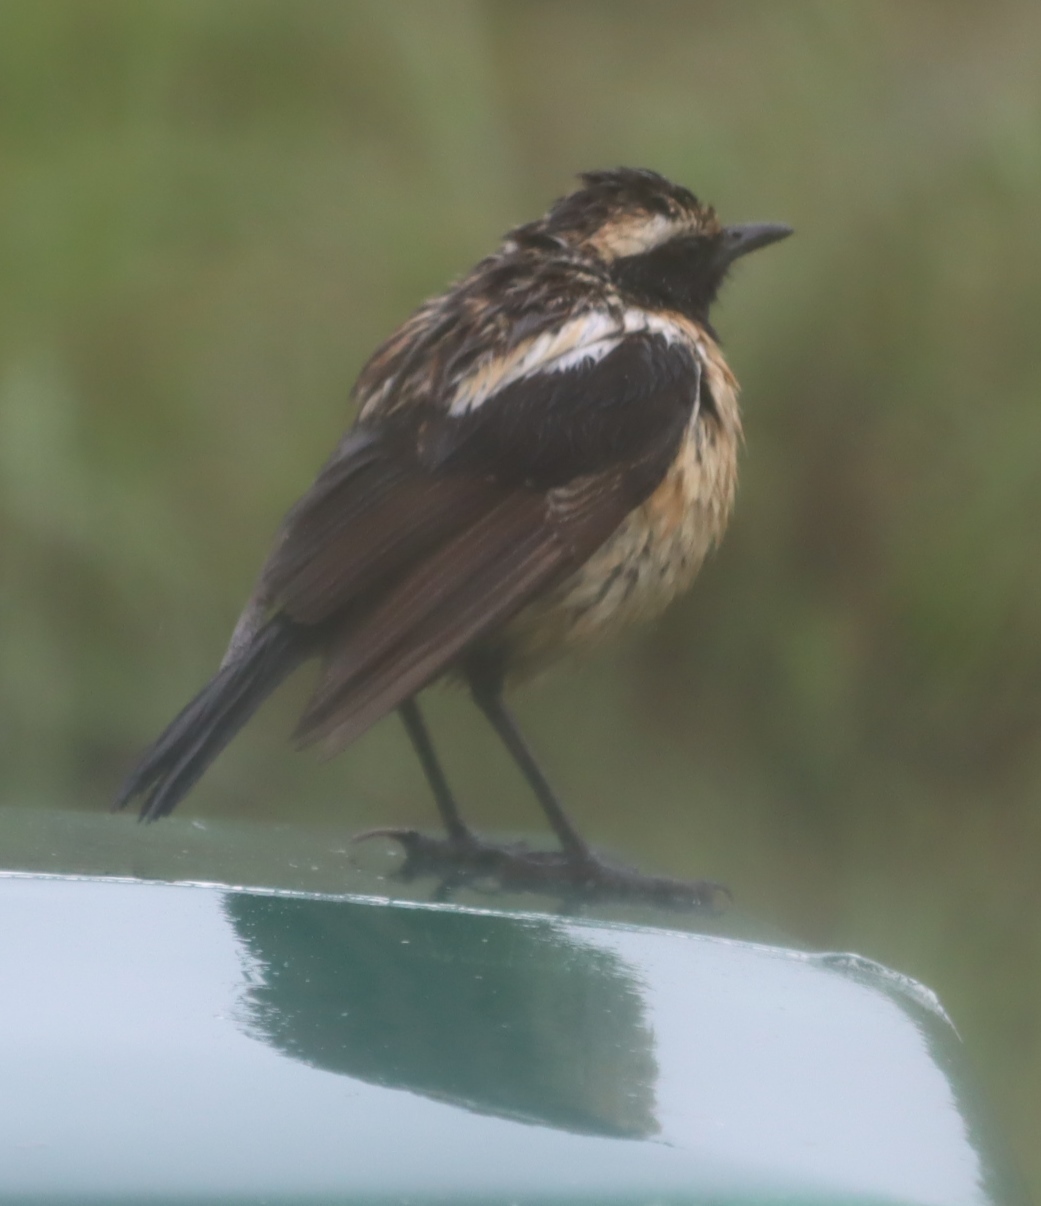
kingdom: Animalia
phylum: Chordata
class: Aves
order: Passeriformes
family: Muscicapidae
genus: Campicoloides
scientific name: Campicoloides bifasciatus
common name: Buff-streaked chat
